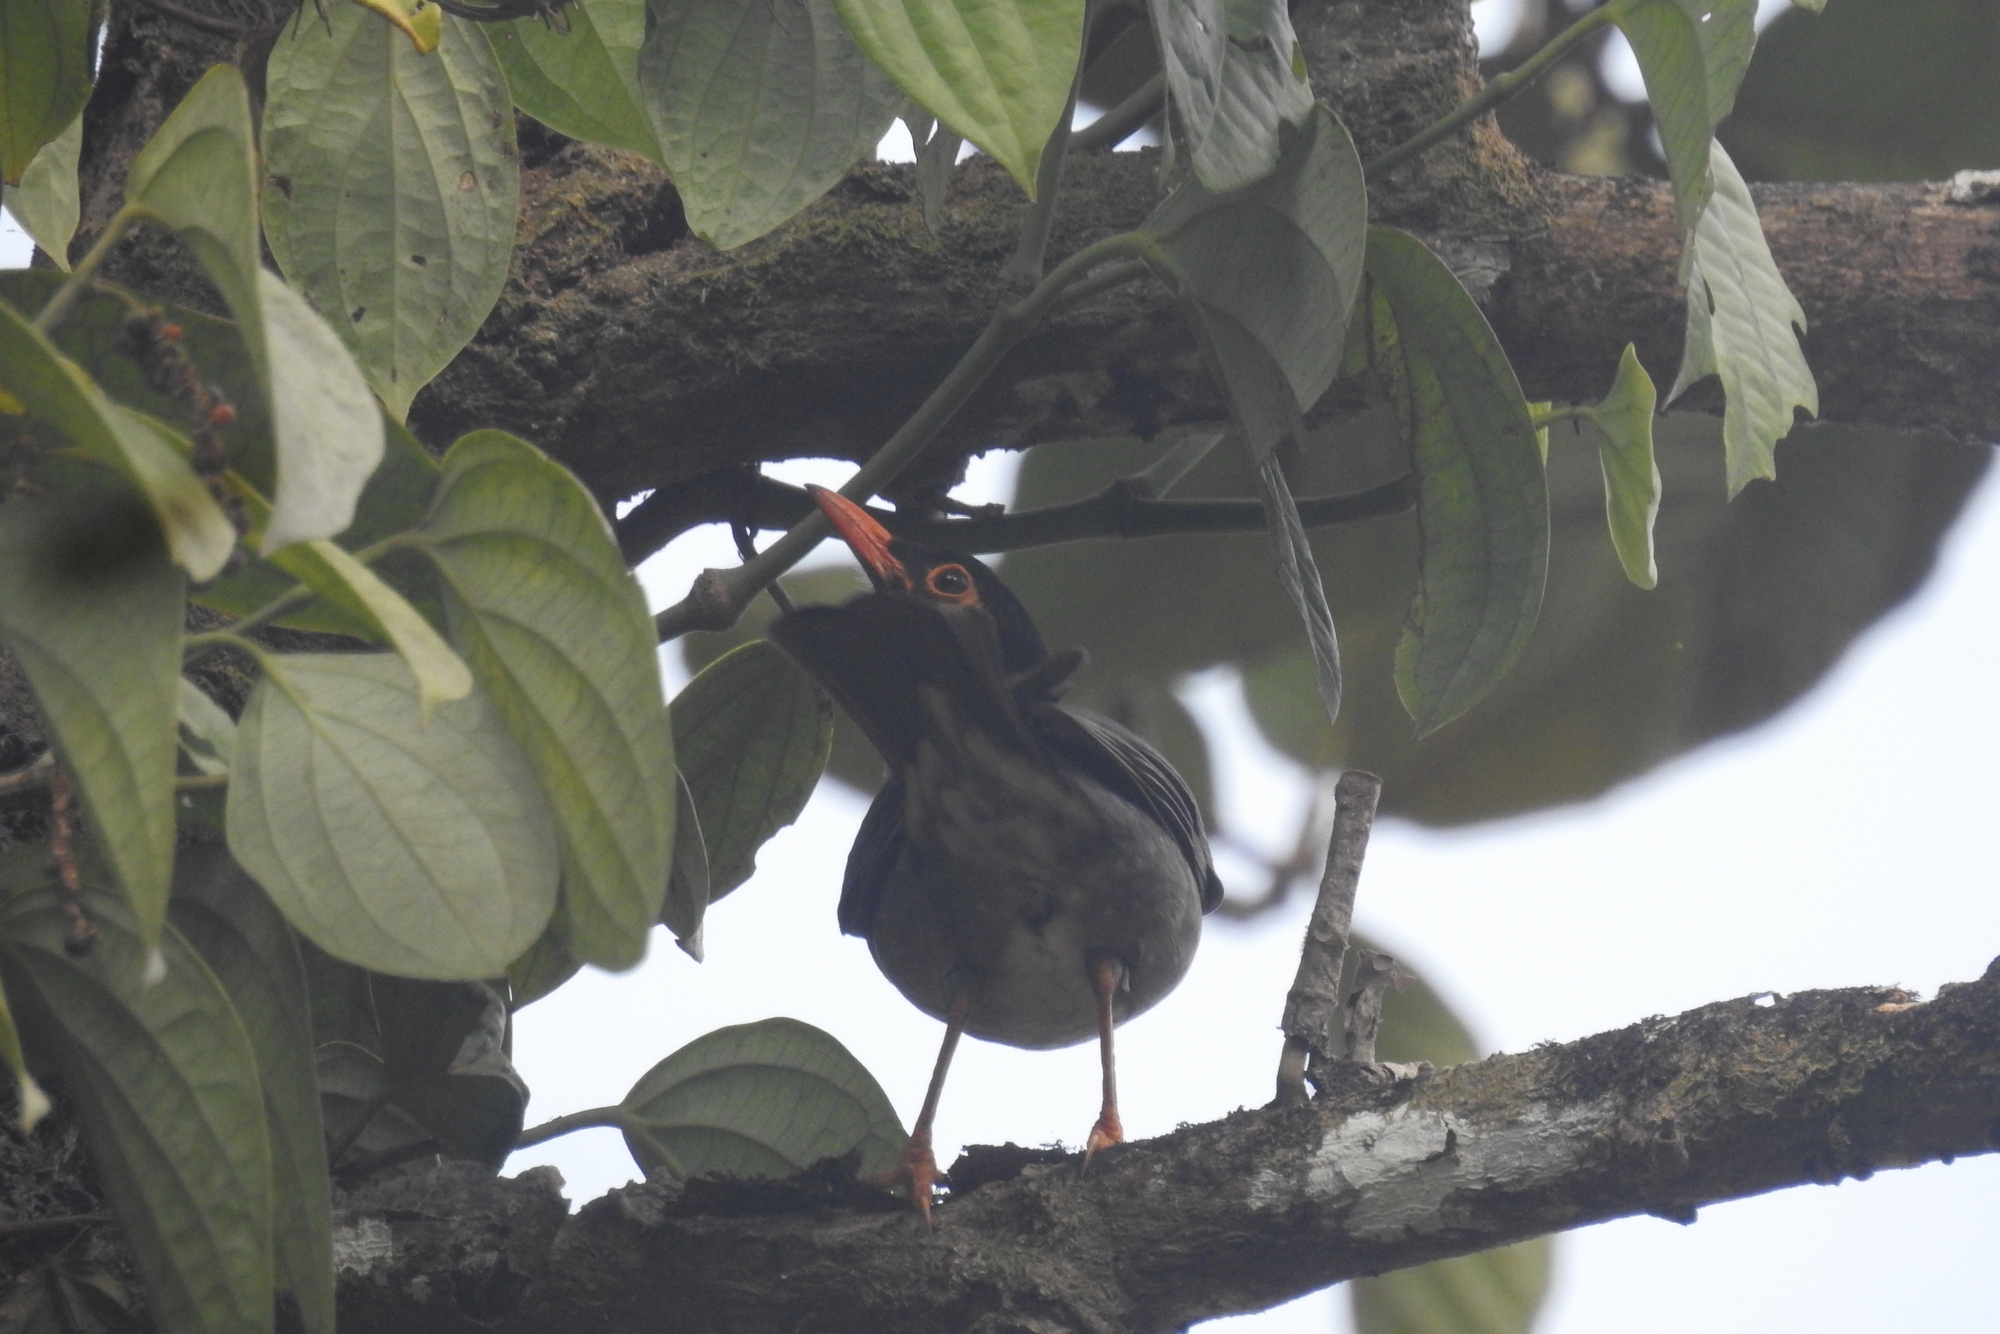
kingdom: Animalia
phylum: Chordata
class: Aves
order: Passeriformes
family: Turdidae
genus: Turdus
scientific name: Turdus simillimus
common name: Indian blackbird
